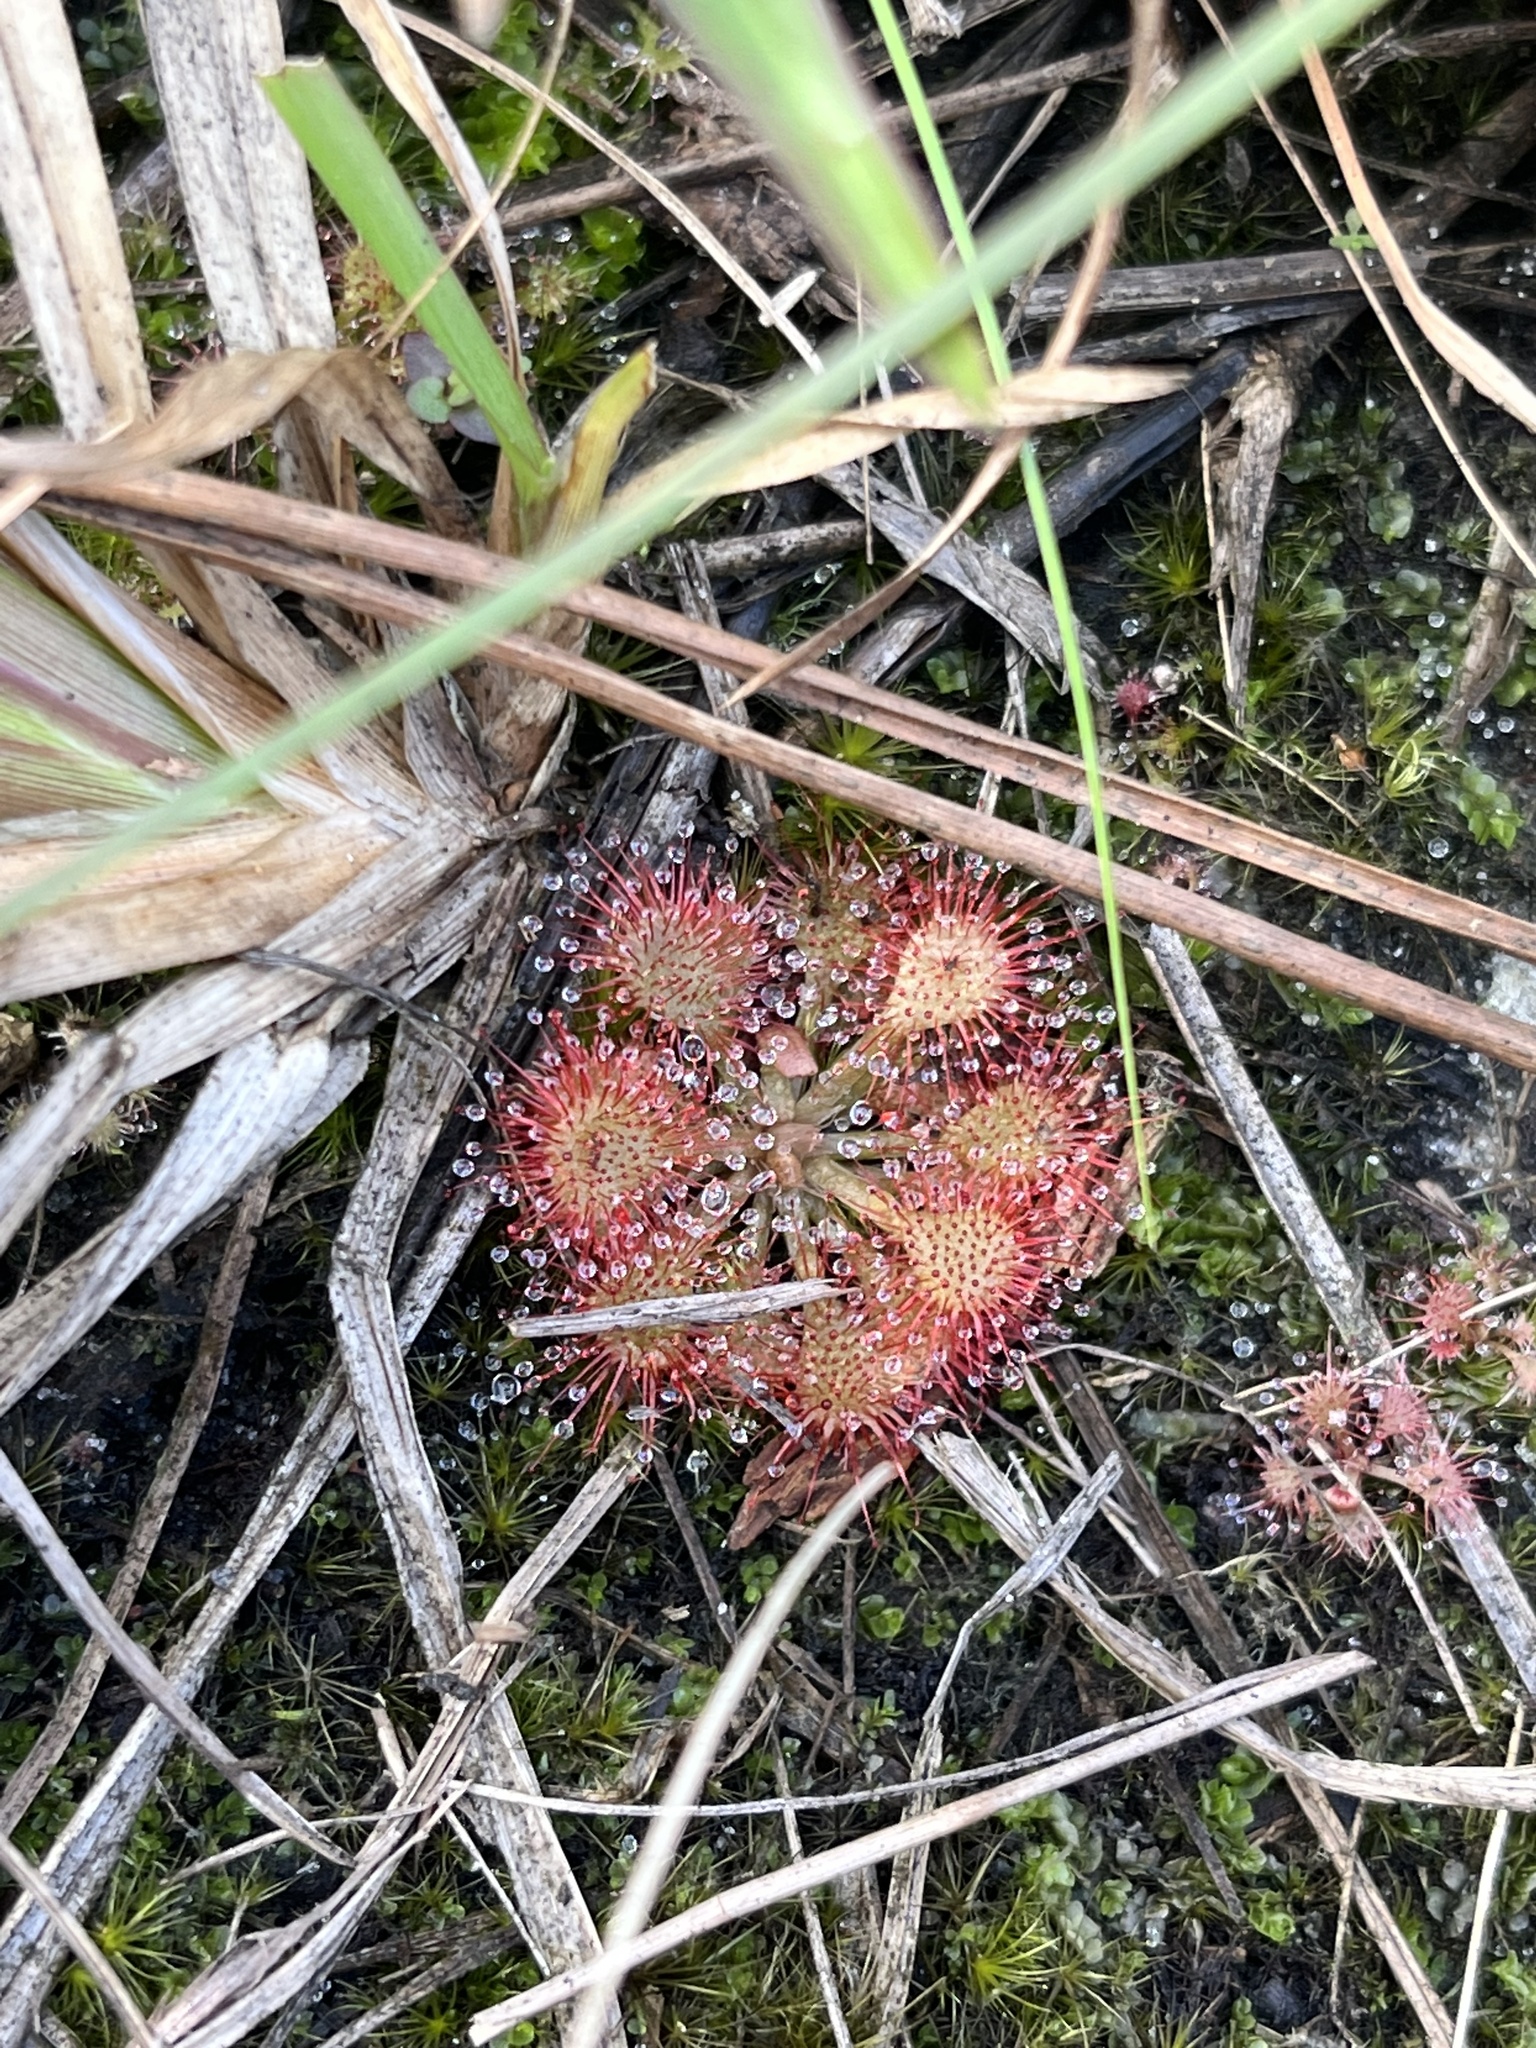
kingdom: Plantae
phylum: Tracheophyta
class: Magnoliopsida
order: Caryophyllales
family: Droseraceae
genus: Drosera
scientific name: Drosera capillaris
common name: Pink sundew
